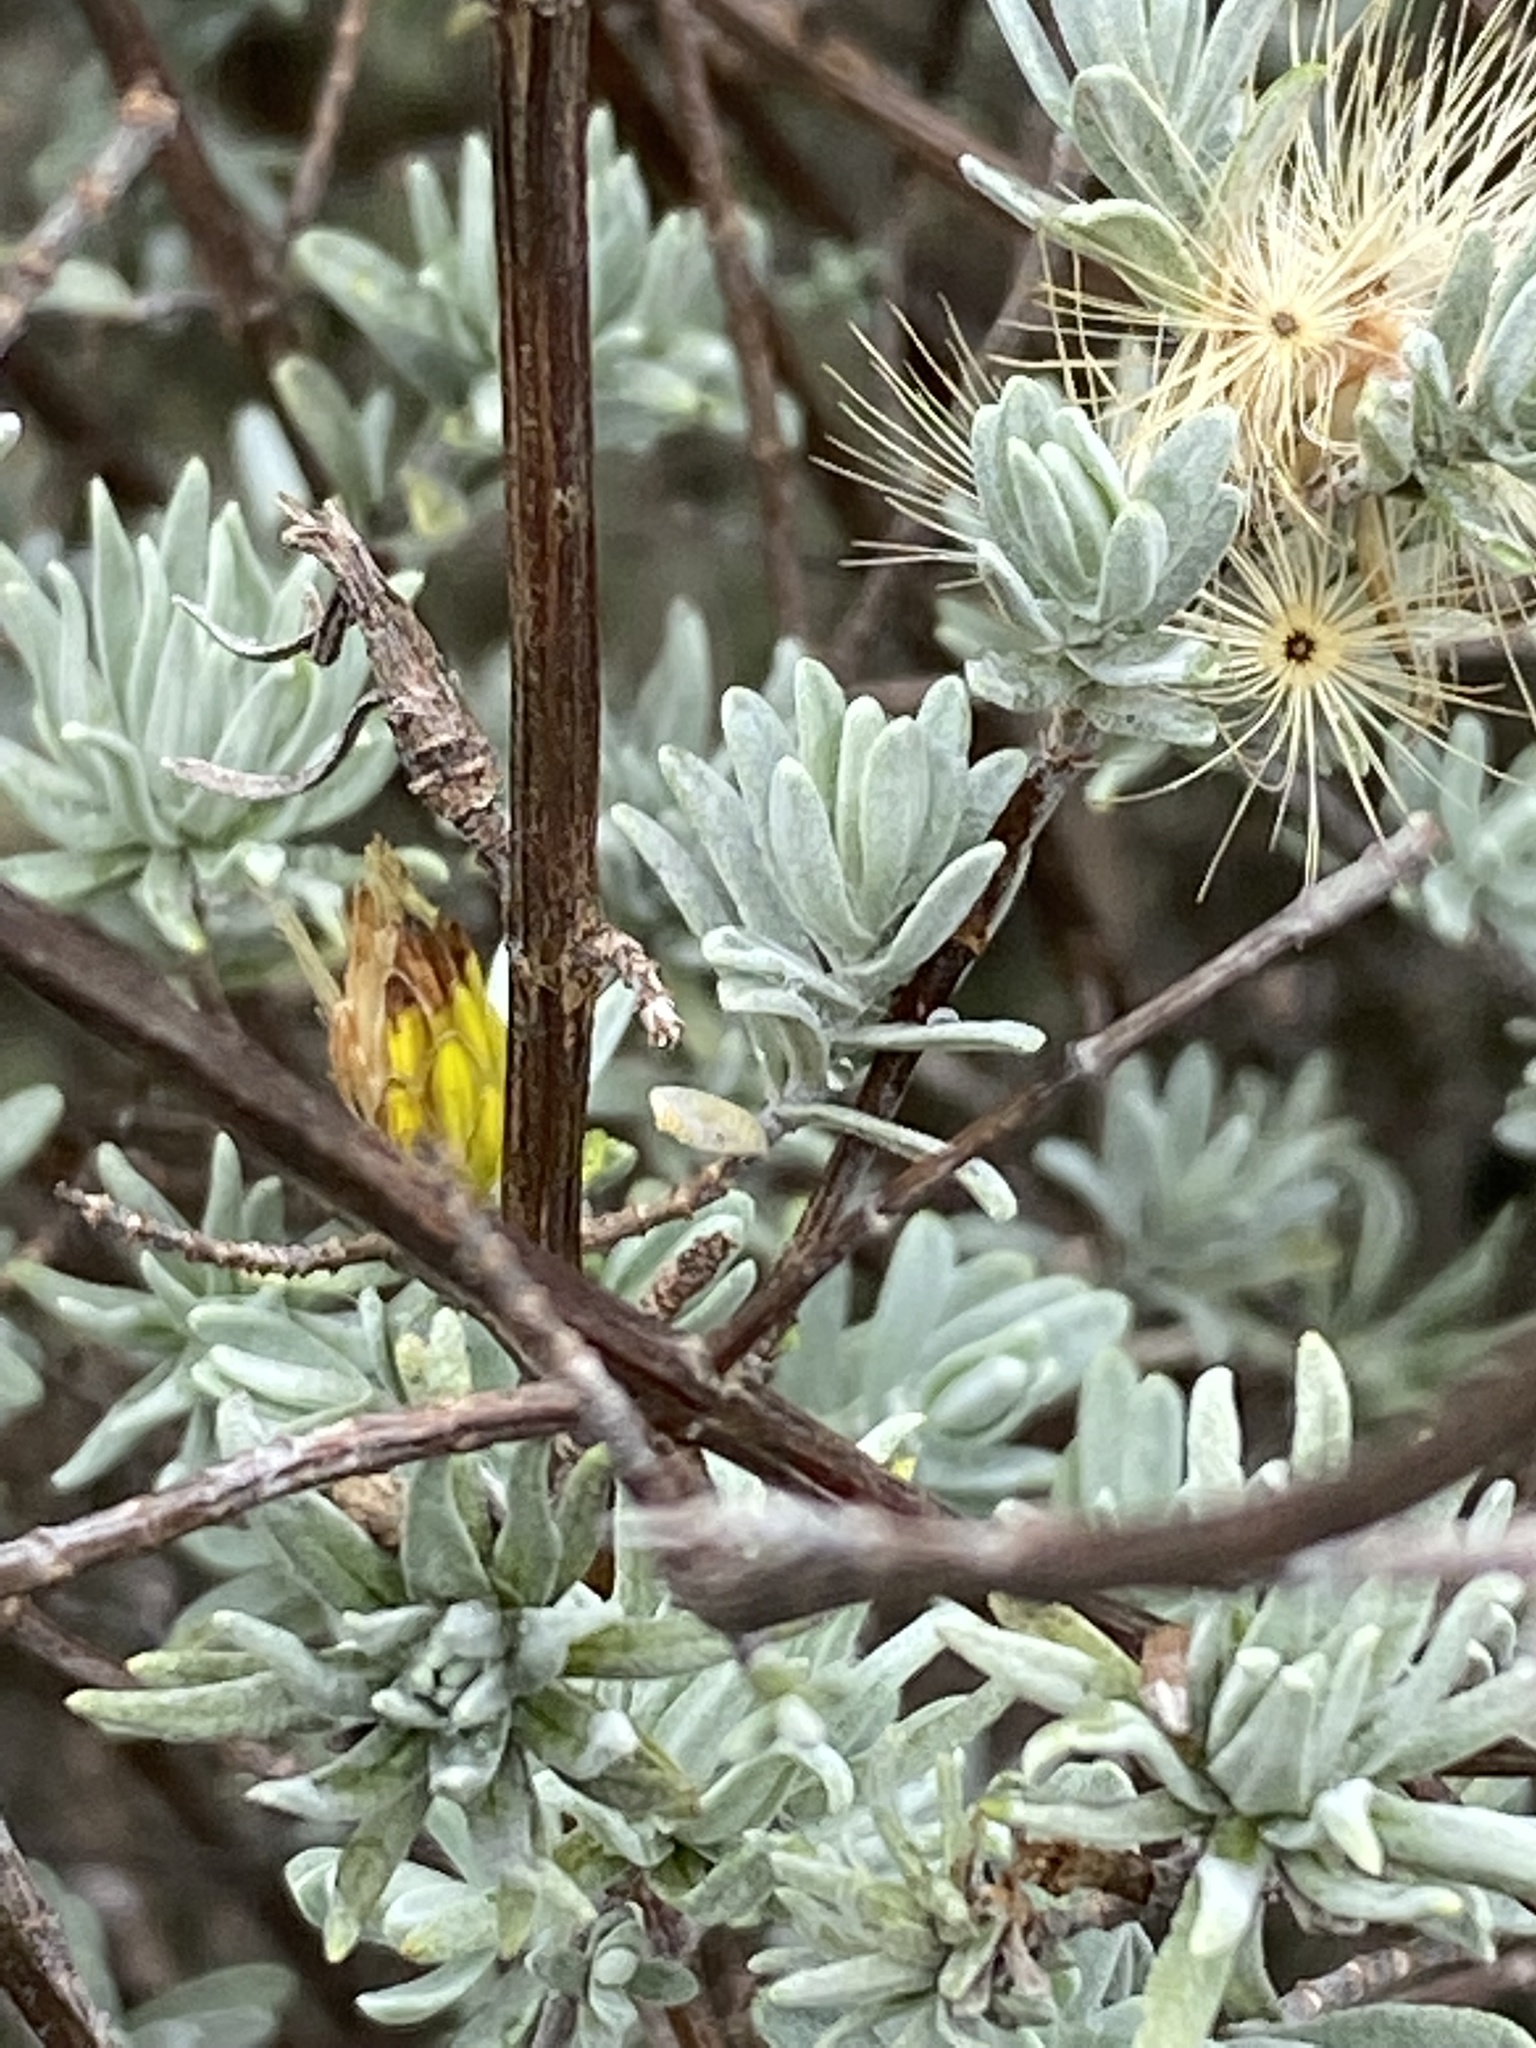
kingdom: Plantae
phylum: Tracheophyta
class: Magnoliopsida
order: Asterales
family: Asteraceae
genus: Pteronia
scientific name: Pteronia incana
